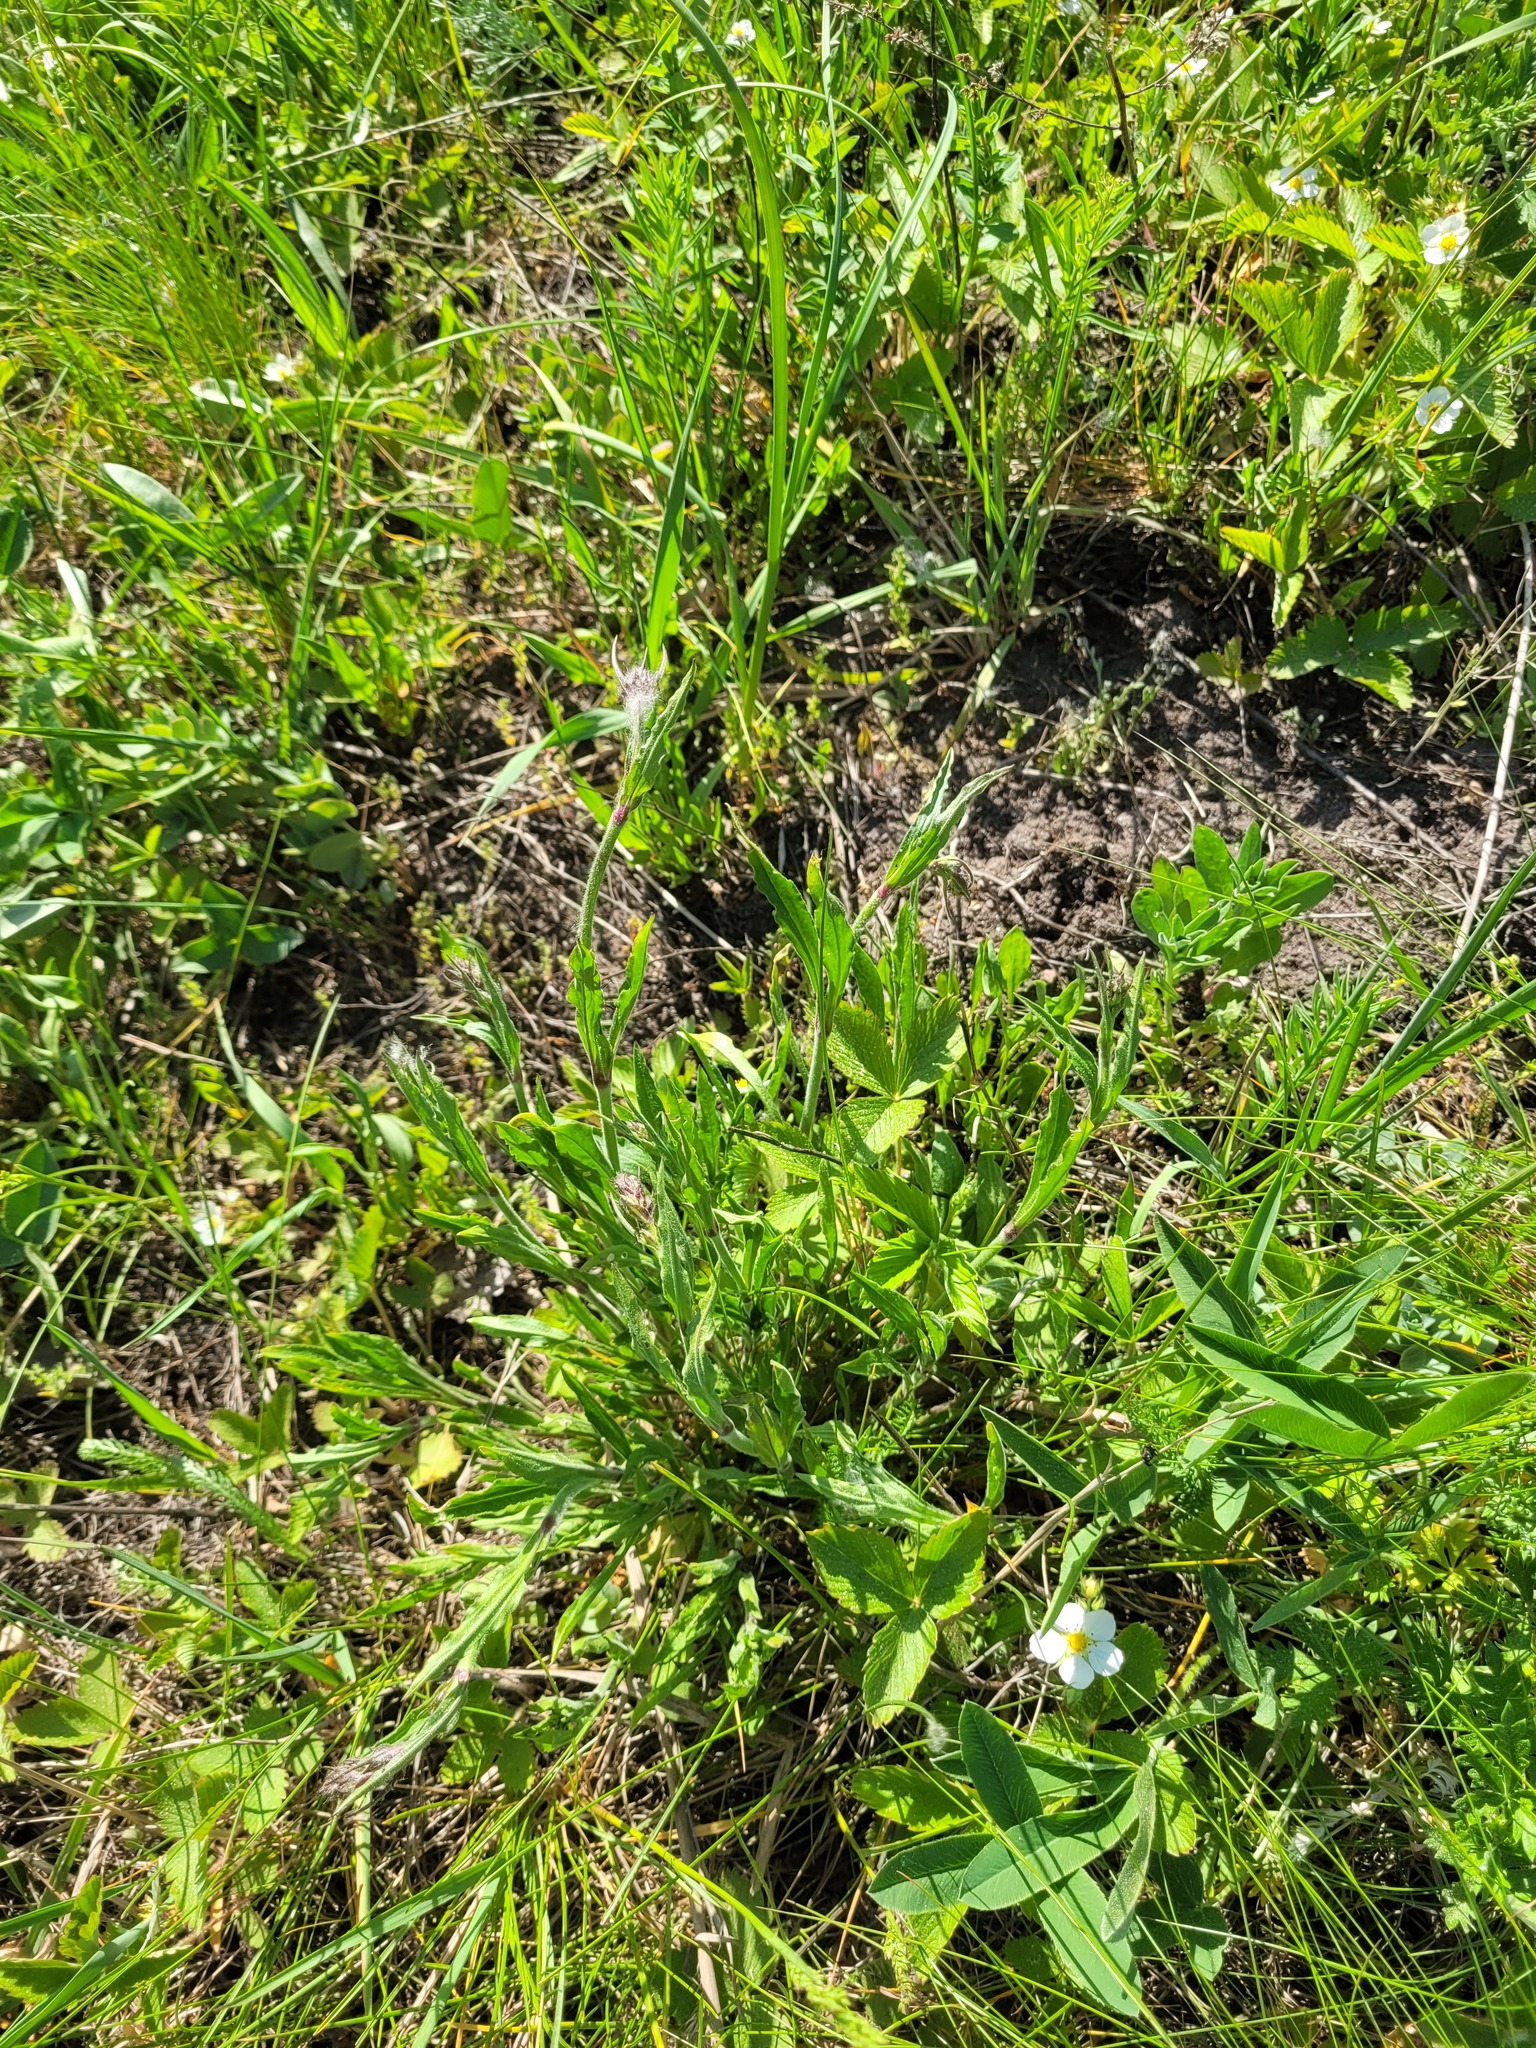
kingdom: Plantae
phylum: Tracheophyta
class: Magnoliopsida
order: Caryophyllales
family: Caryophyllaceae
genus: Silene
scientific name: Silene nutans
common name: Nottingham catchfly
